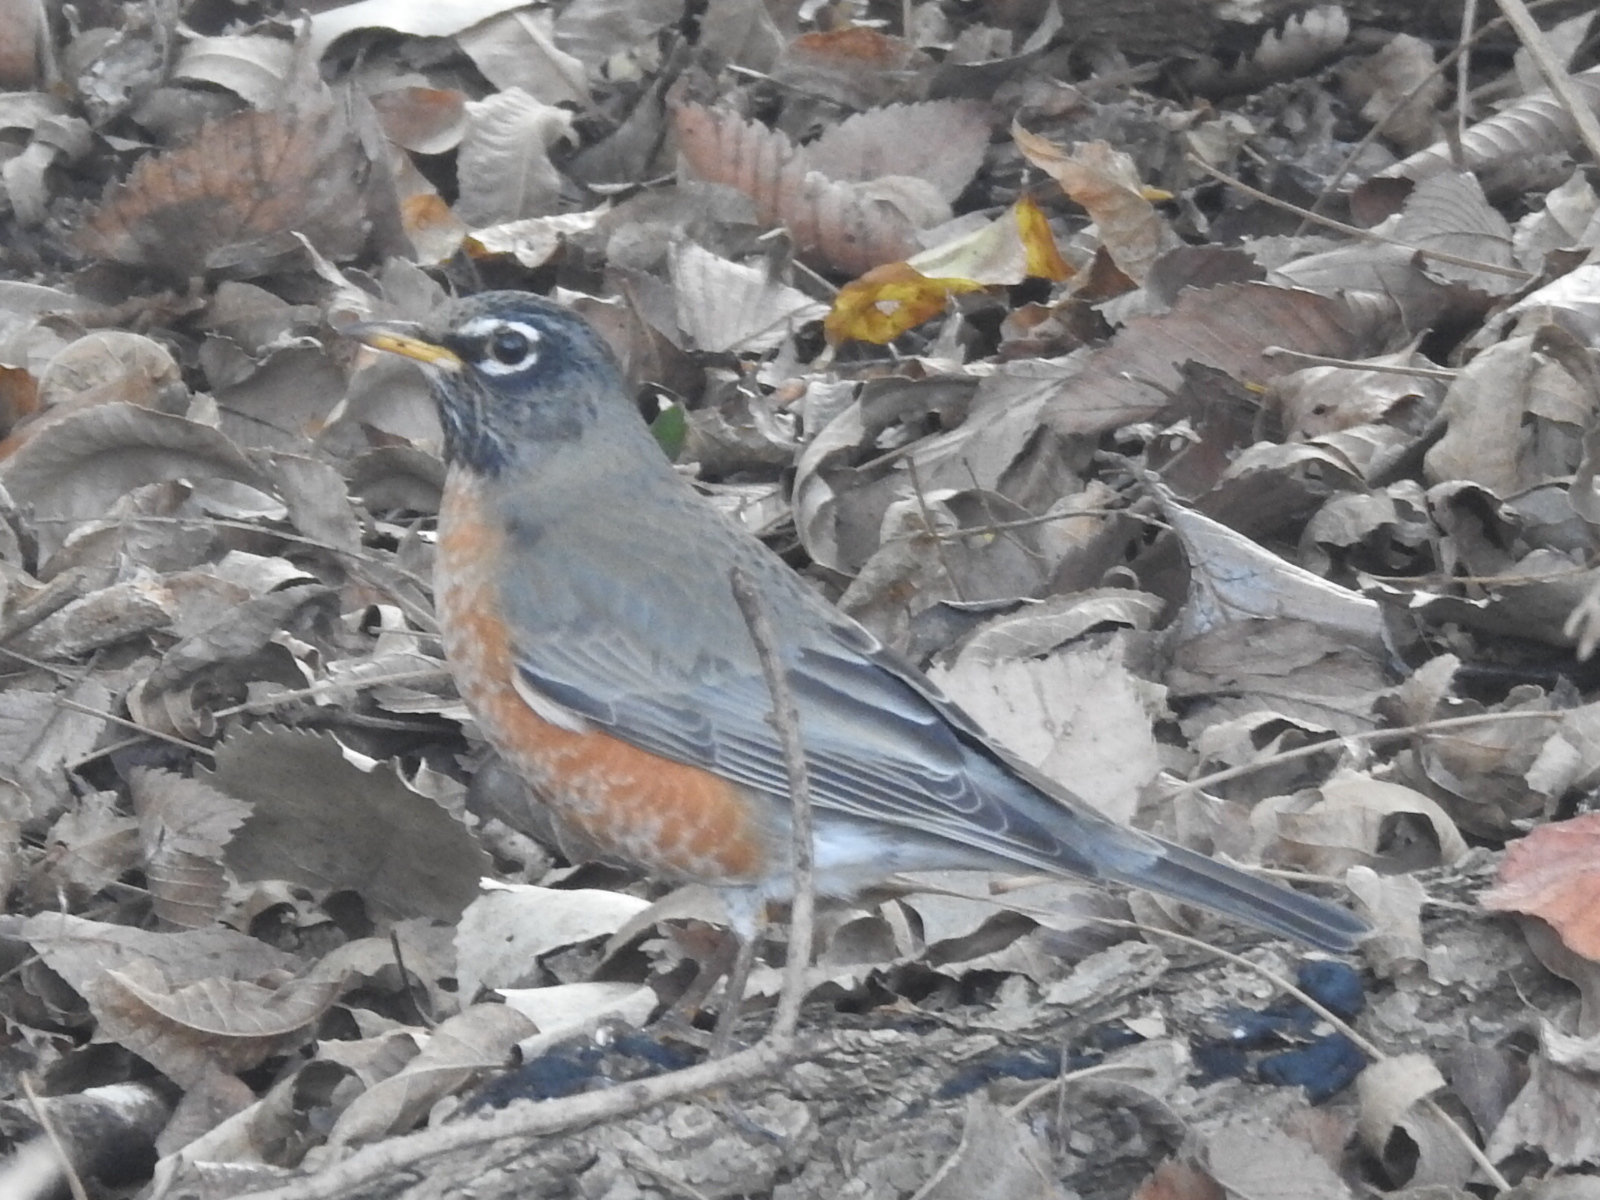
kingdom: Animalia
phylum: Chordata
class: Aves
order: Passeriformes
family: Turdidae
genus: Turdus
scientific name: Turdus migratorius
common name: American robin
